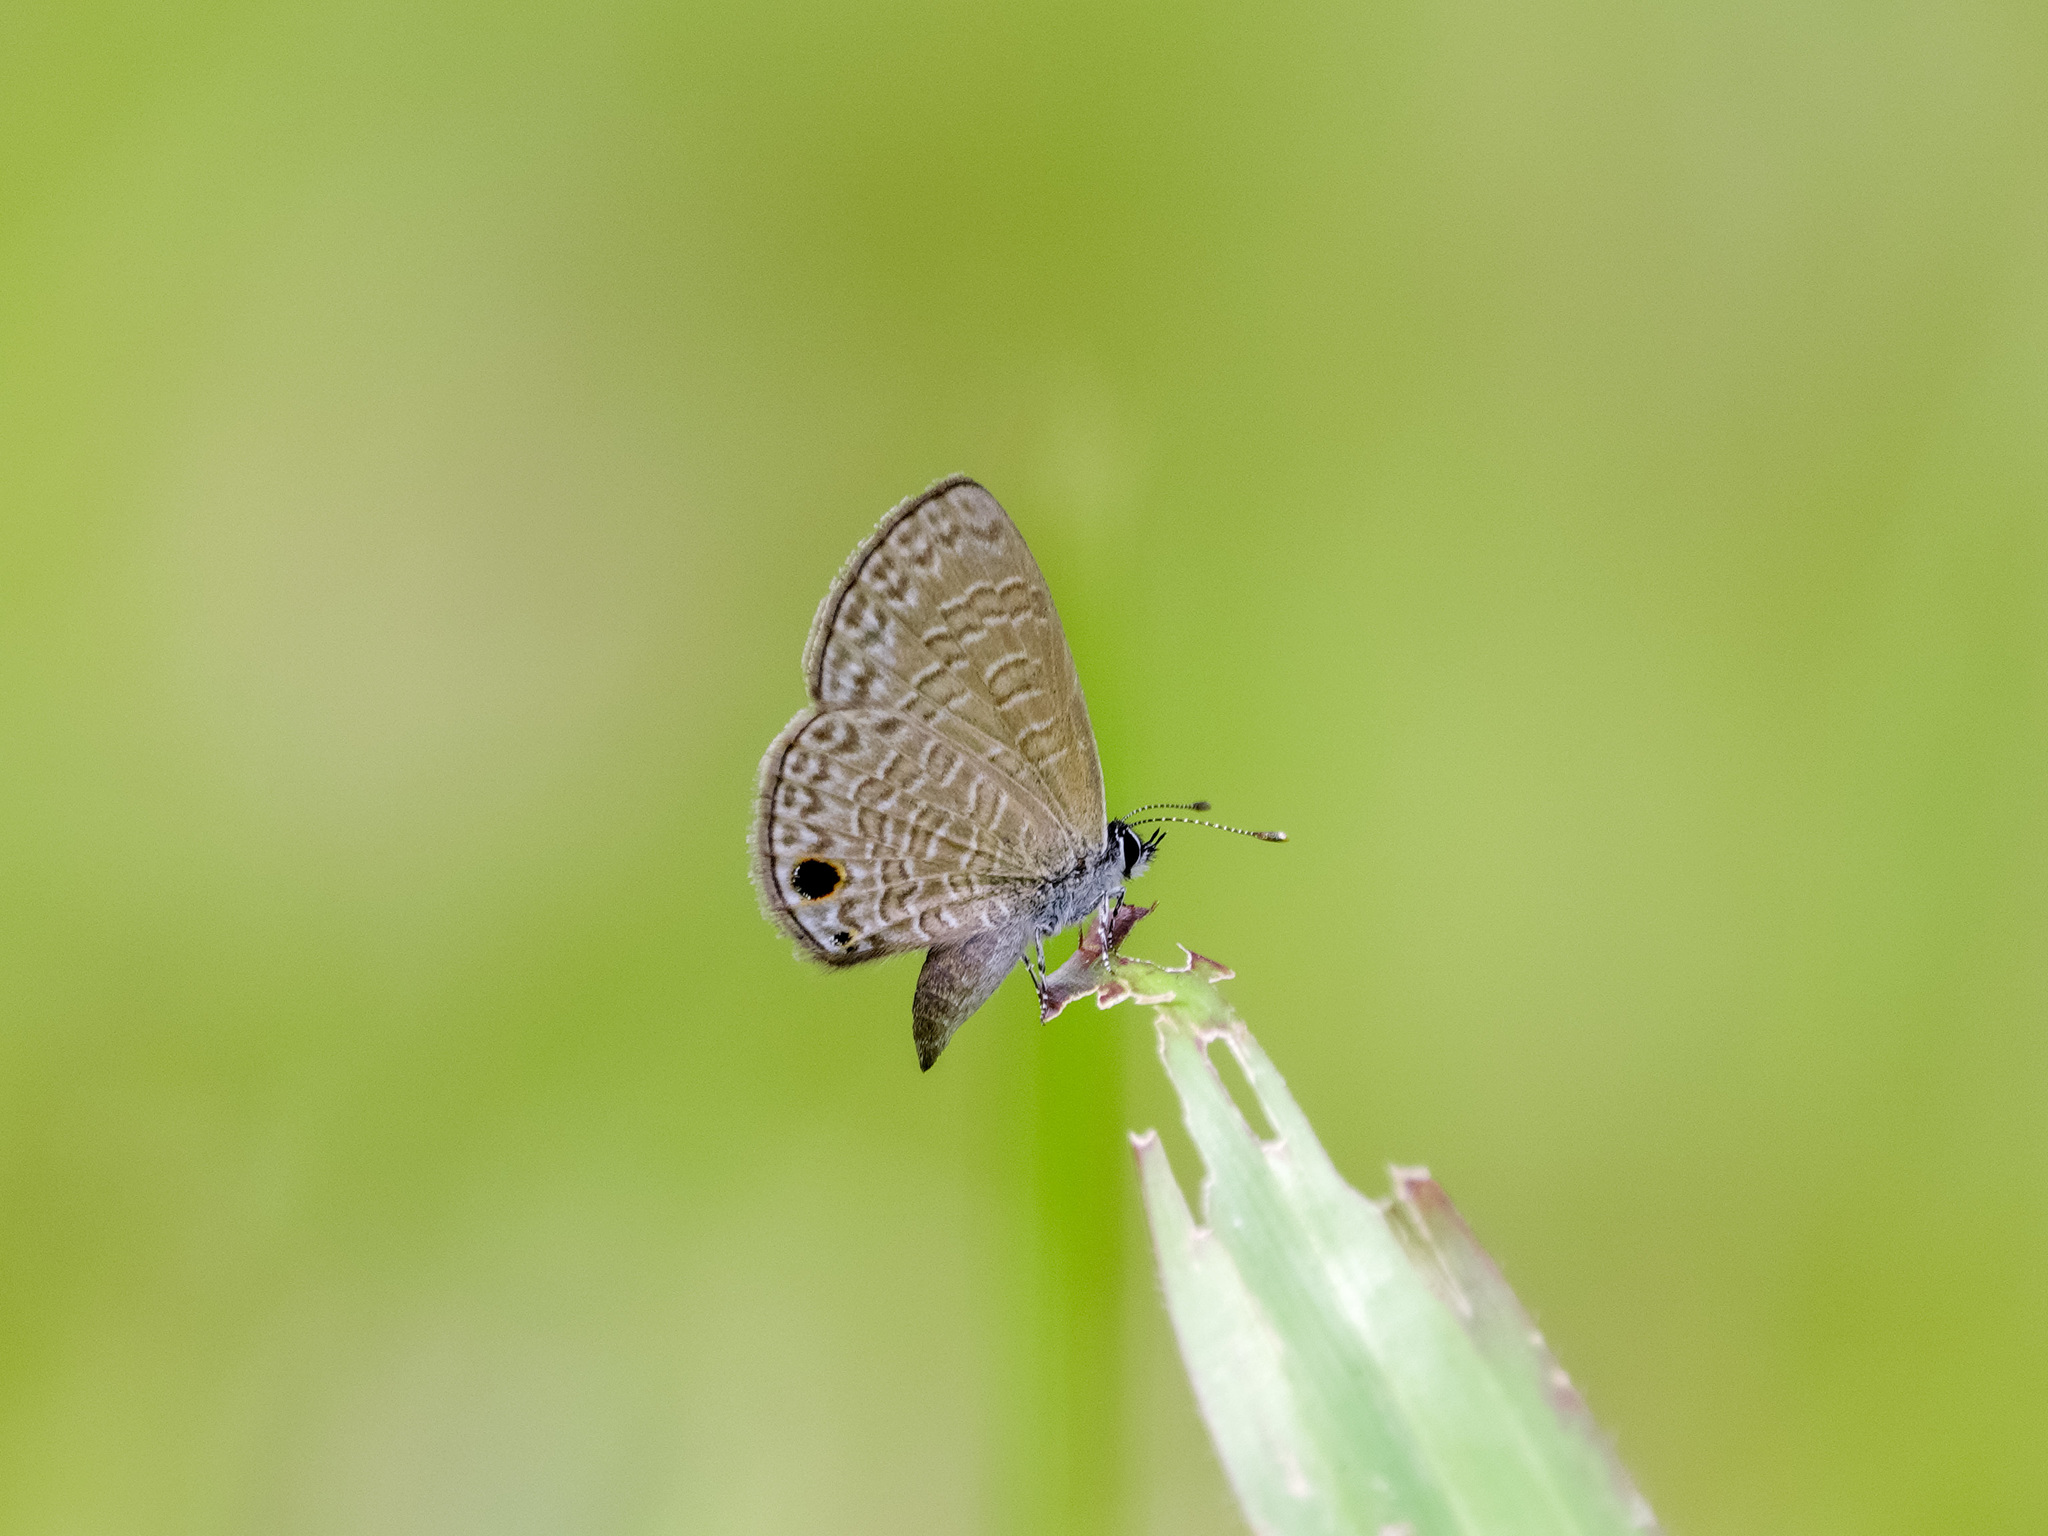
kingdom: Animalia
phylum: Arthropoda
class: Insecta
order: Lepidoptera
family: Lycaenidae
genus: Prosotas
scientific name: Prosotas dubiosa
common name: Tailless lineblue
